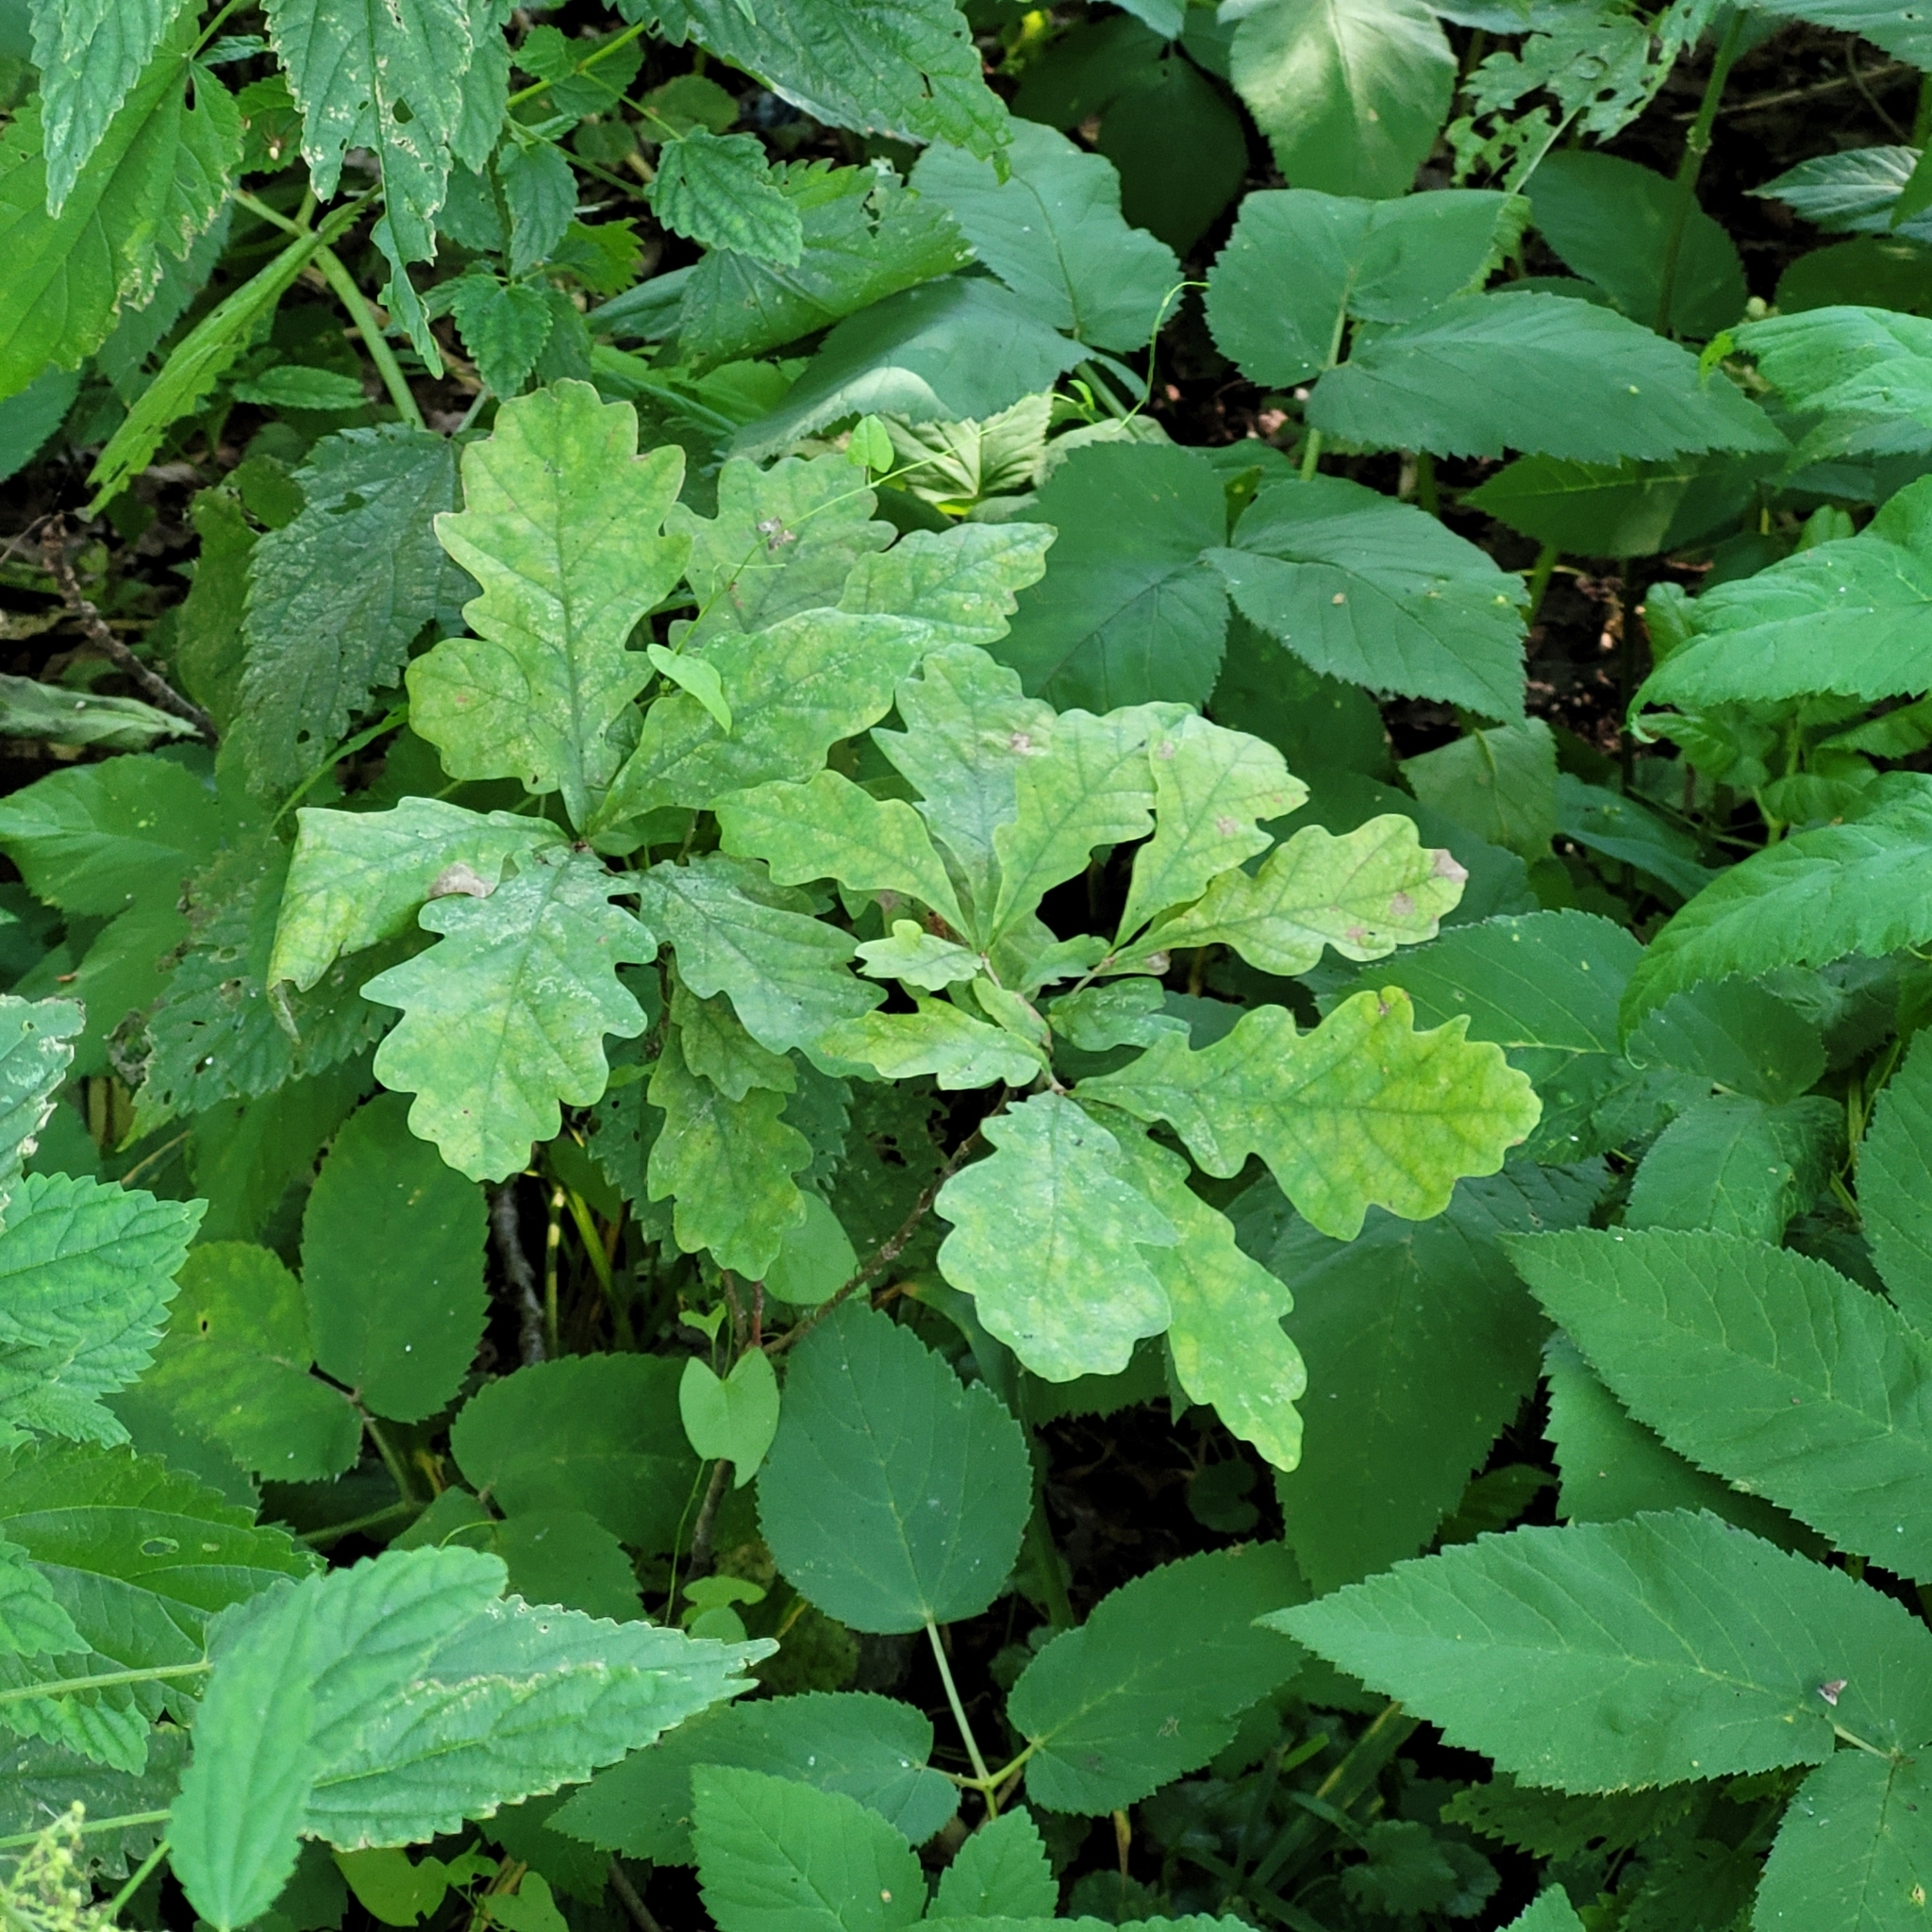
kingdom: Plantae
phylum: Tracheophyta
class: Magnoliopsida
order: Fagales
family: Fagaceae
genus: Quercus
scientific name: Quercus robur
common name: Pedunculate oak
